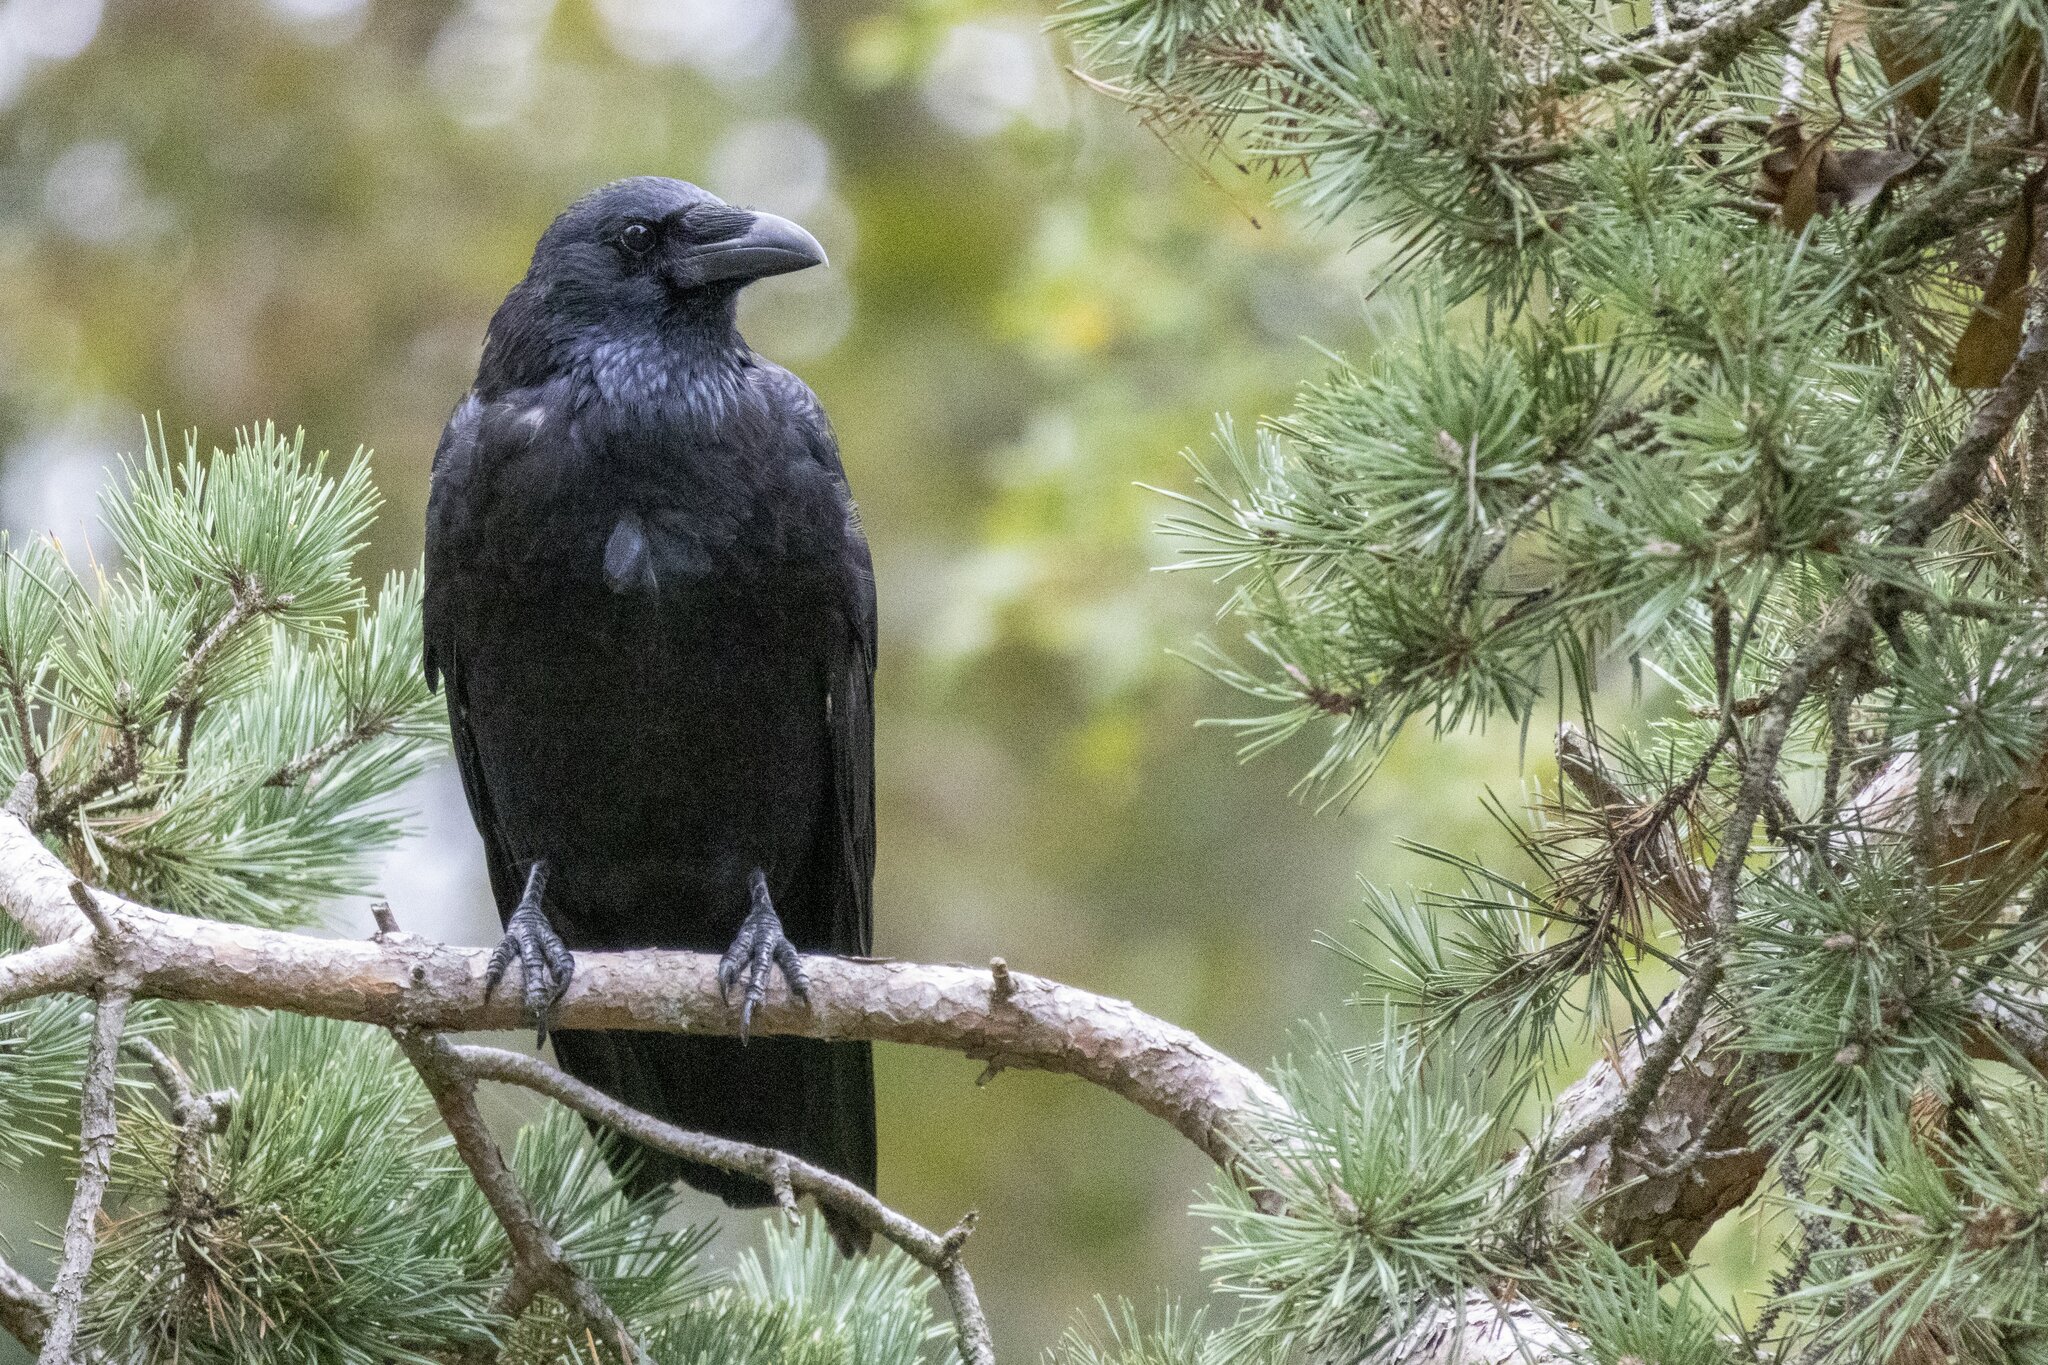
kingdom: Animalia
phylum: Chordata
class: Aves
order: Passeriformes
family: Corvidae
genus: Corvus
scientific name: Corvus corone
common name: Carrion crow
